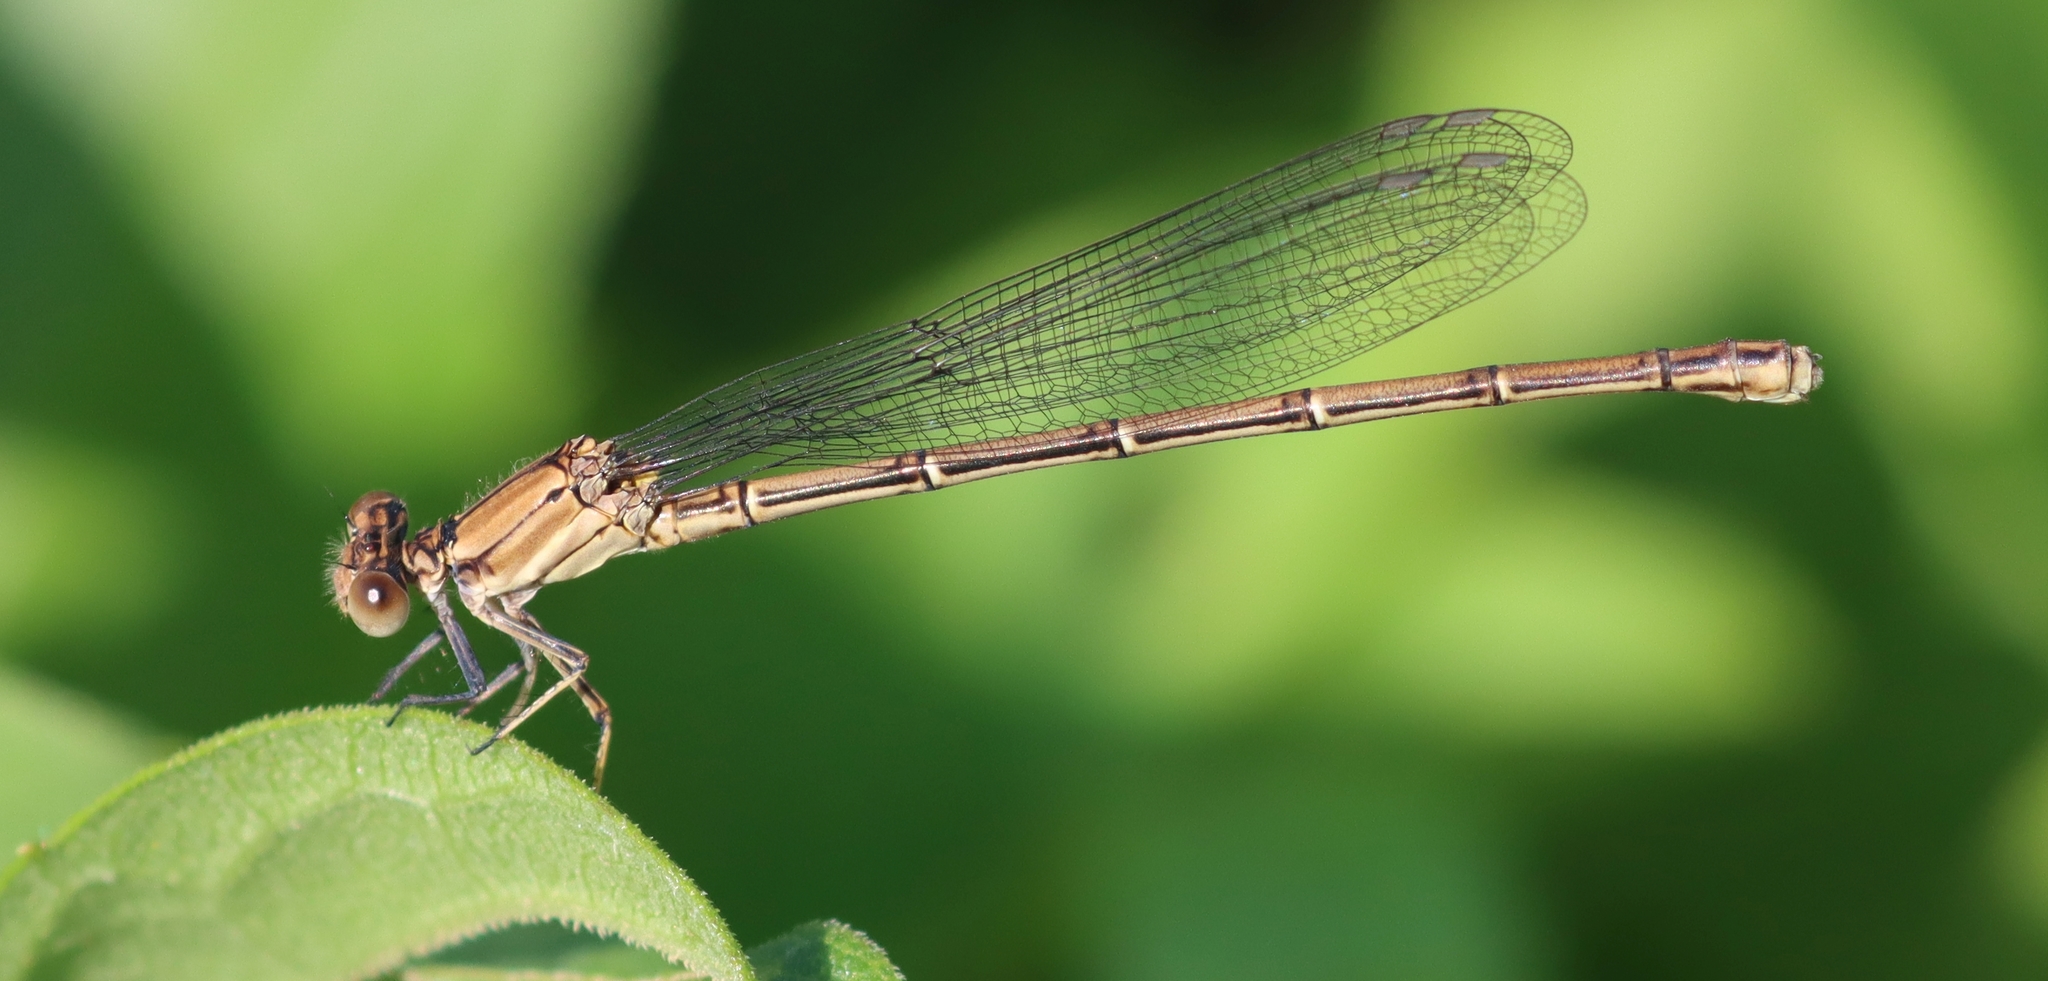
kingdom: Animalia
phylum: Arthropoda
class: Insecta
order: Odonata
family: Coenagrionidae
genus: Argia
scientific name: Argia moesta
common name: Powdered dancer
